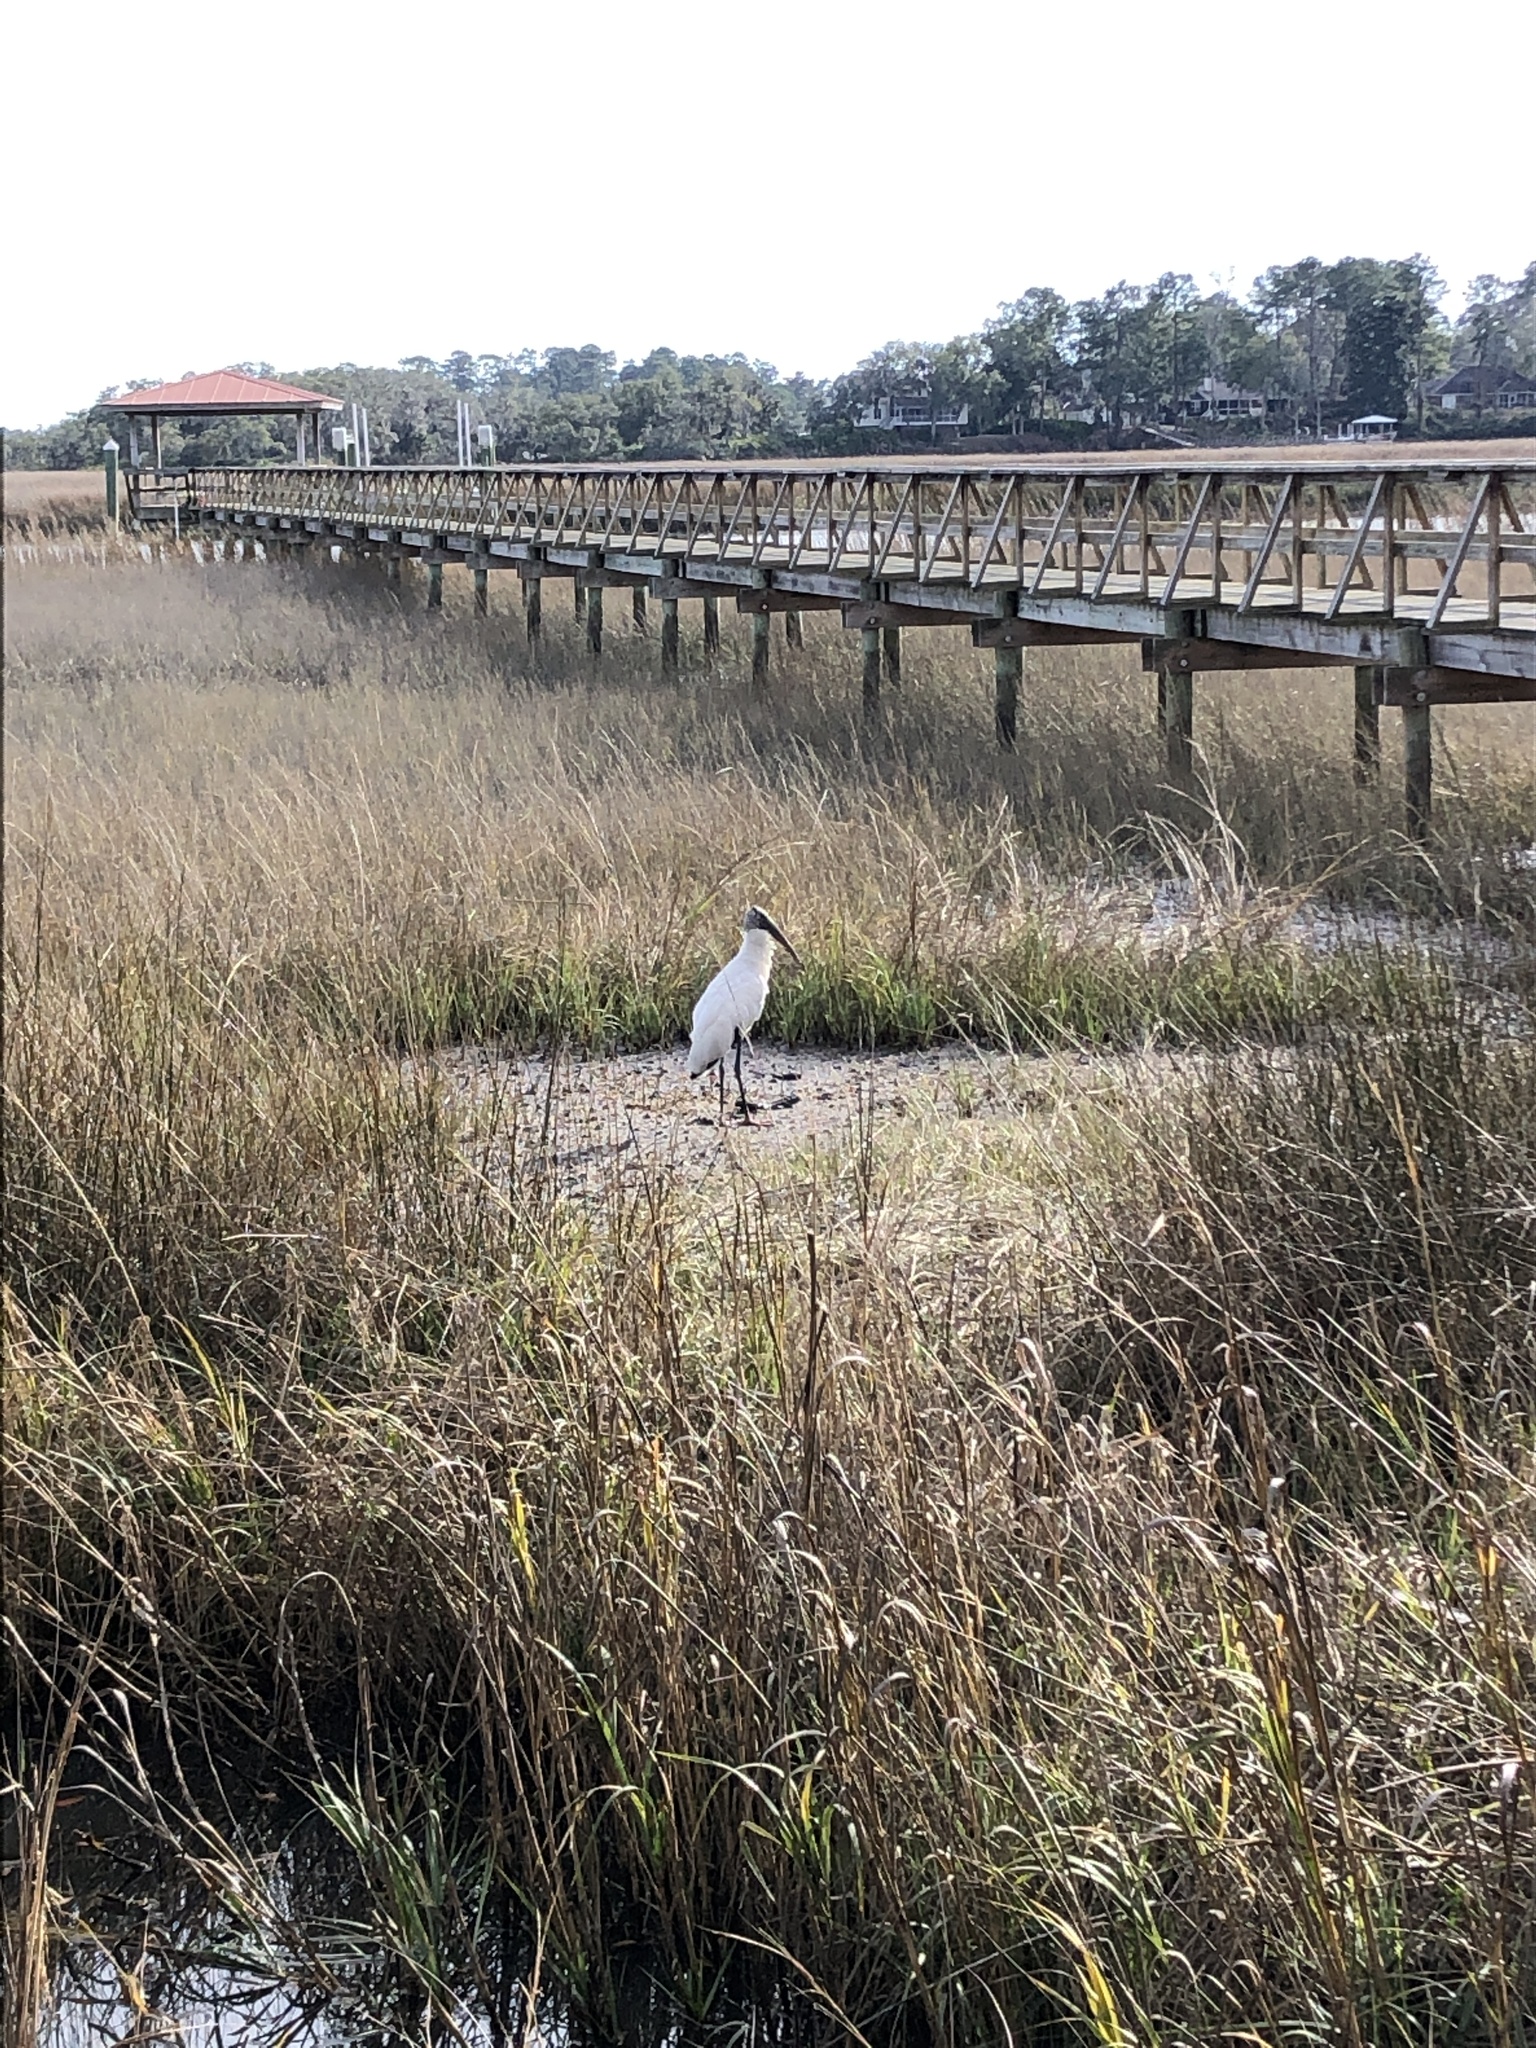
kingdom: Animalia
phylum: Chordata
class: Aves
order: Ciconiiformes
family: Ciconiidae
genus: Mycteria
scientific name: Mycteria americana
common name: Wood stork
